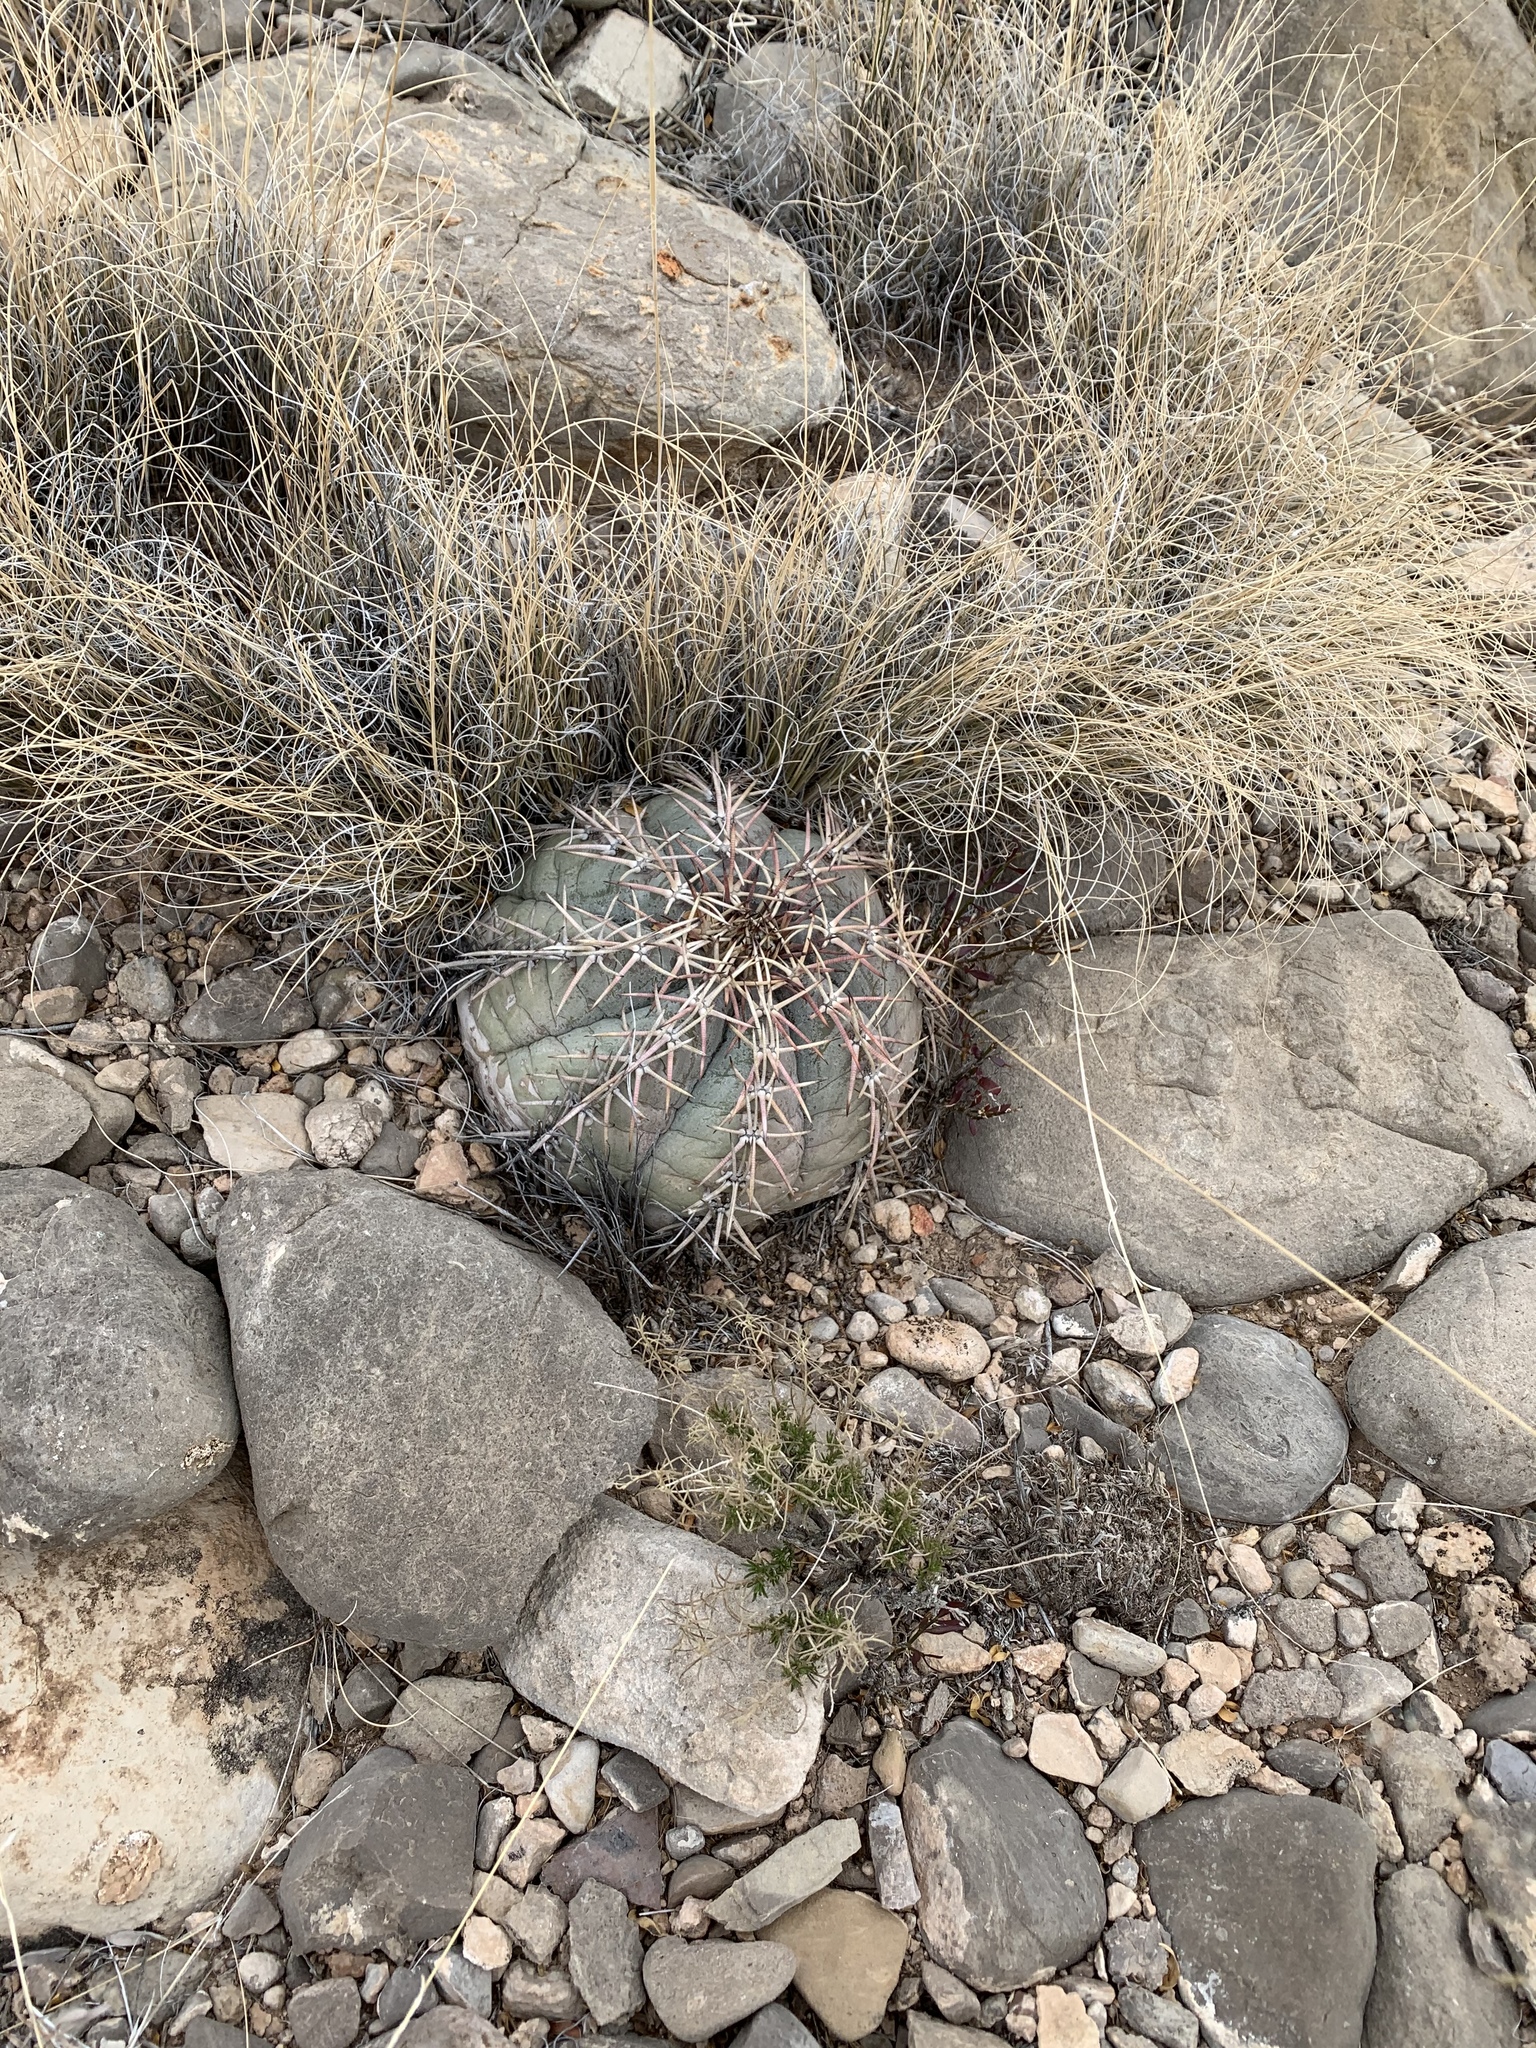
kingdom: Plantae
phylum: Tracheophyta
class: Magnoliopsida
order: Caryophyllales
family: Cactaceae
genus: Echinocactus
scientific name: Echinocactus horizonthalonius
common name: Devilshead
